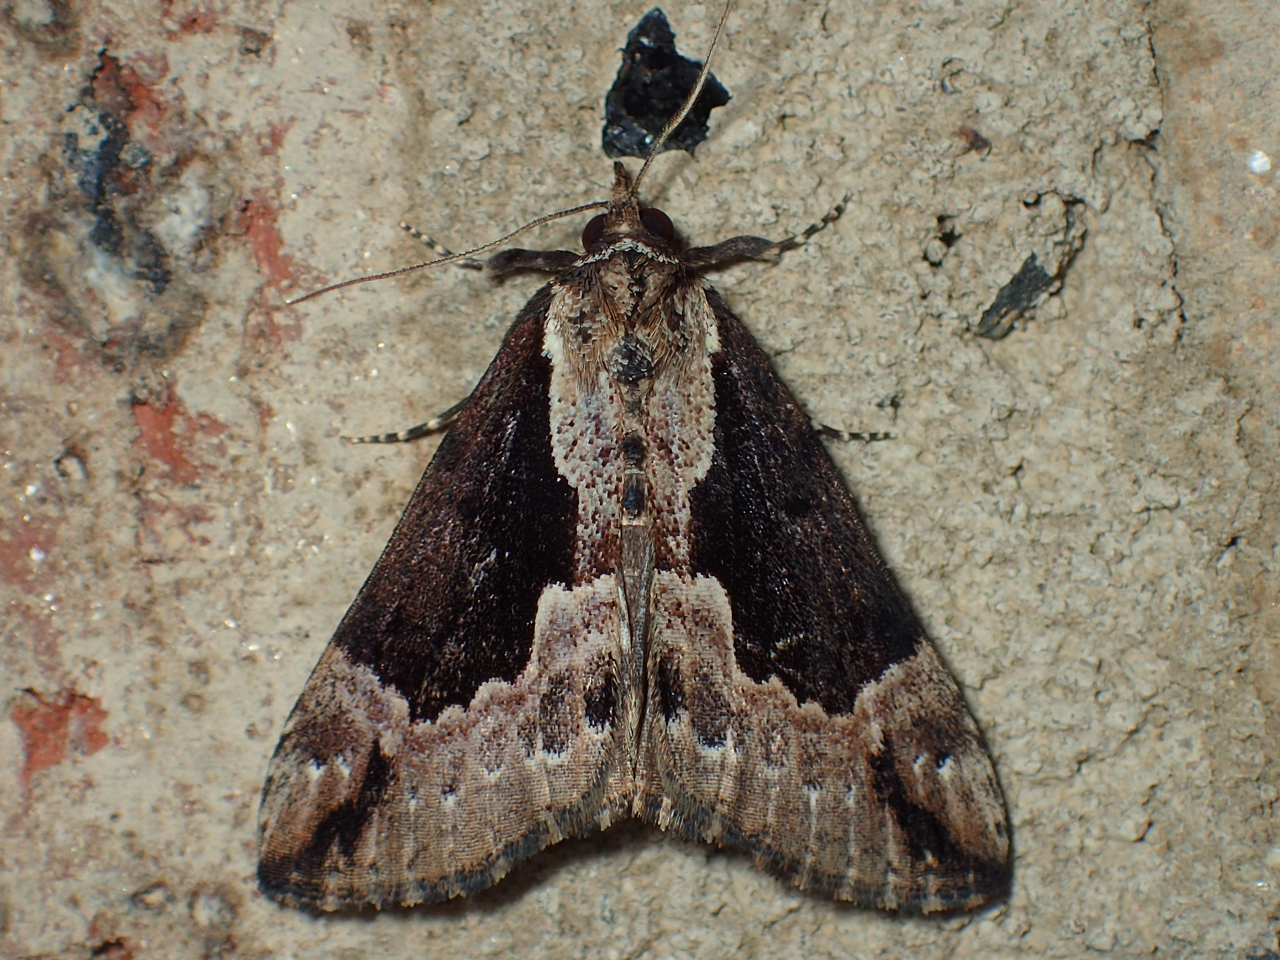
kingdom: Animalia
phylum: Arthropoda
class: Insecta
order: Lepidoptera
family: Erebidae
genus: Hypena
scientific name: Hypena baltimoralis
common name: Baltimore snout
